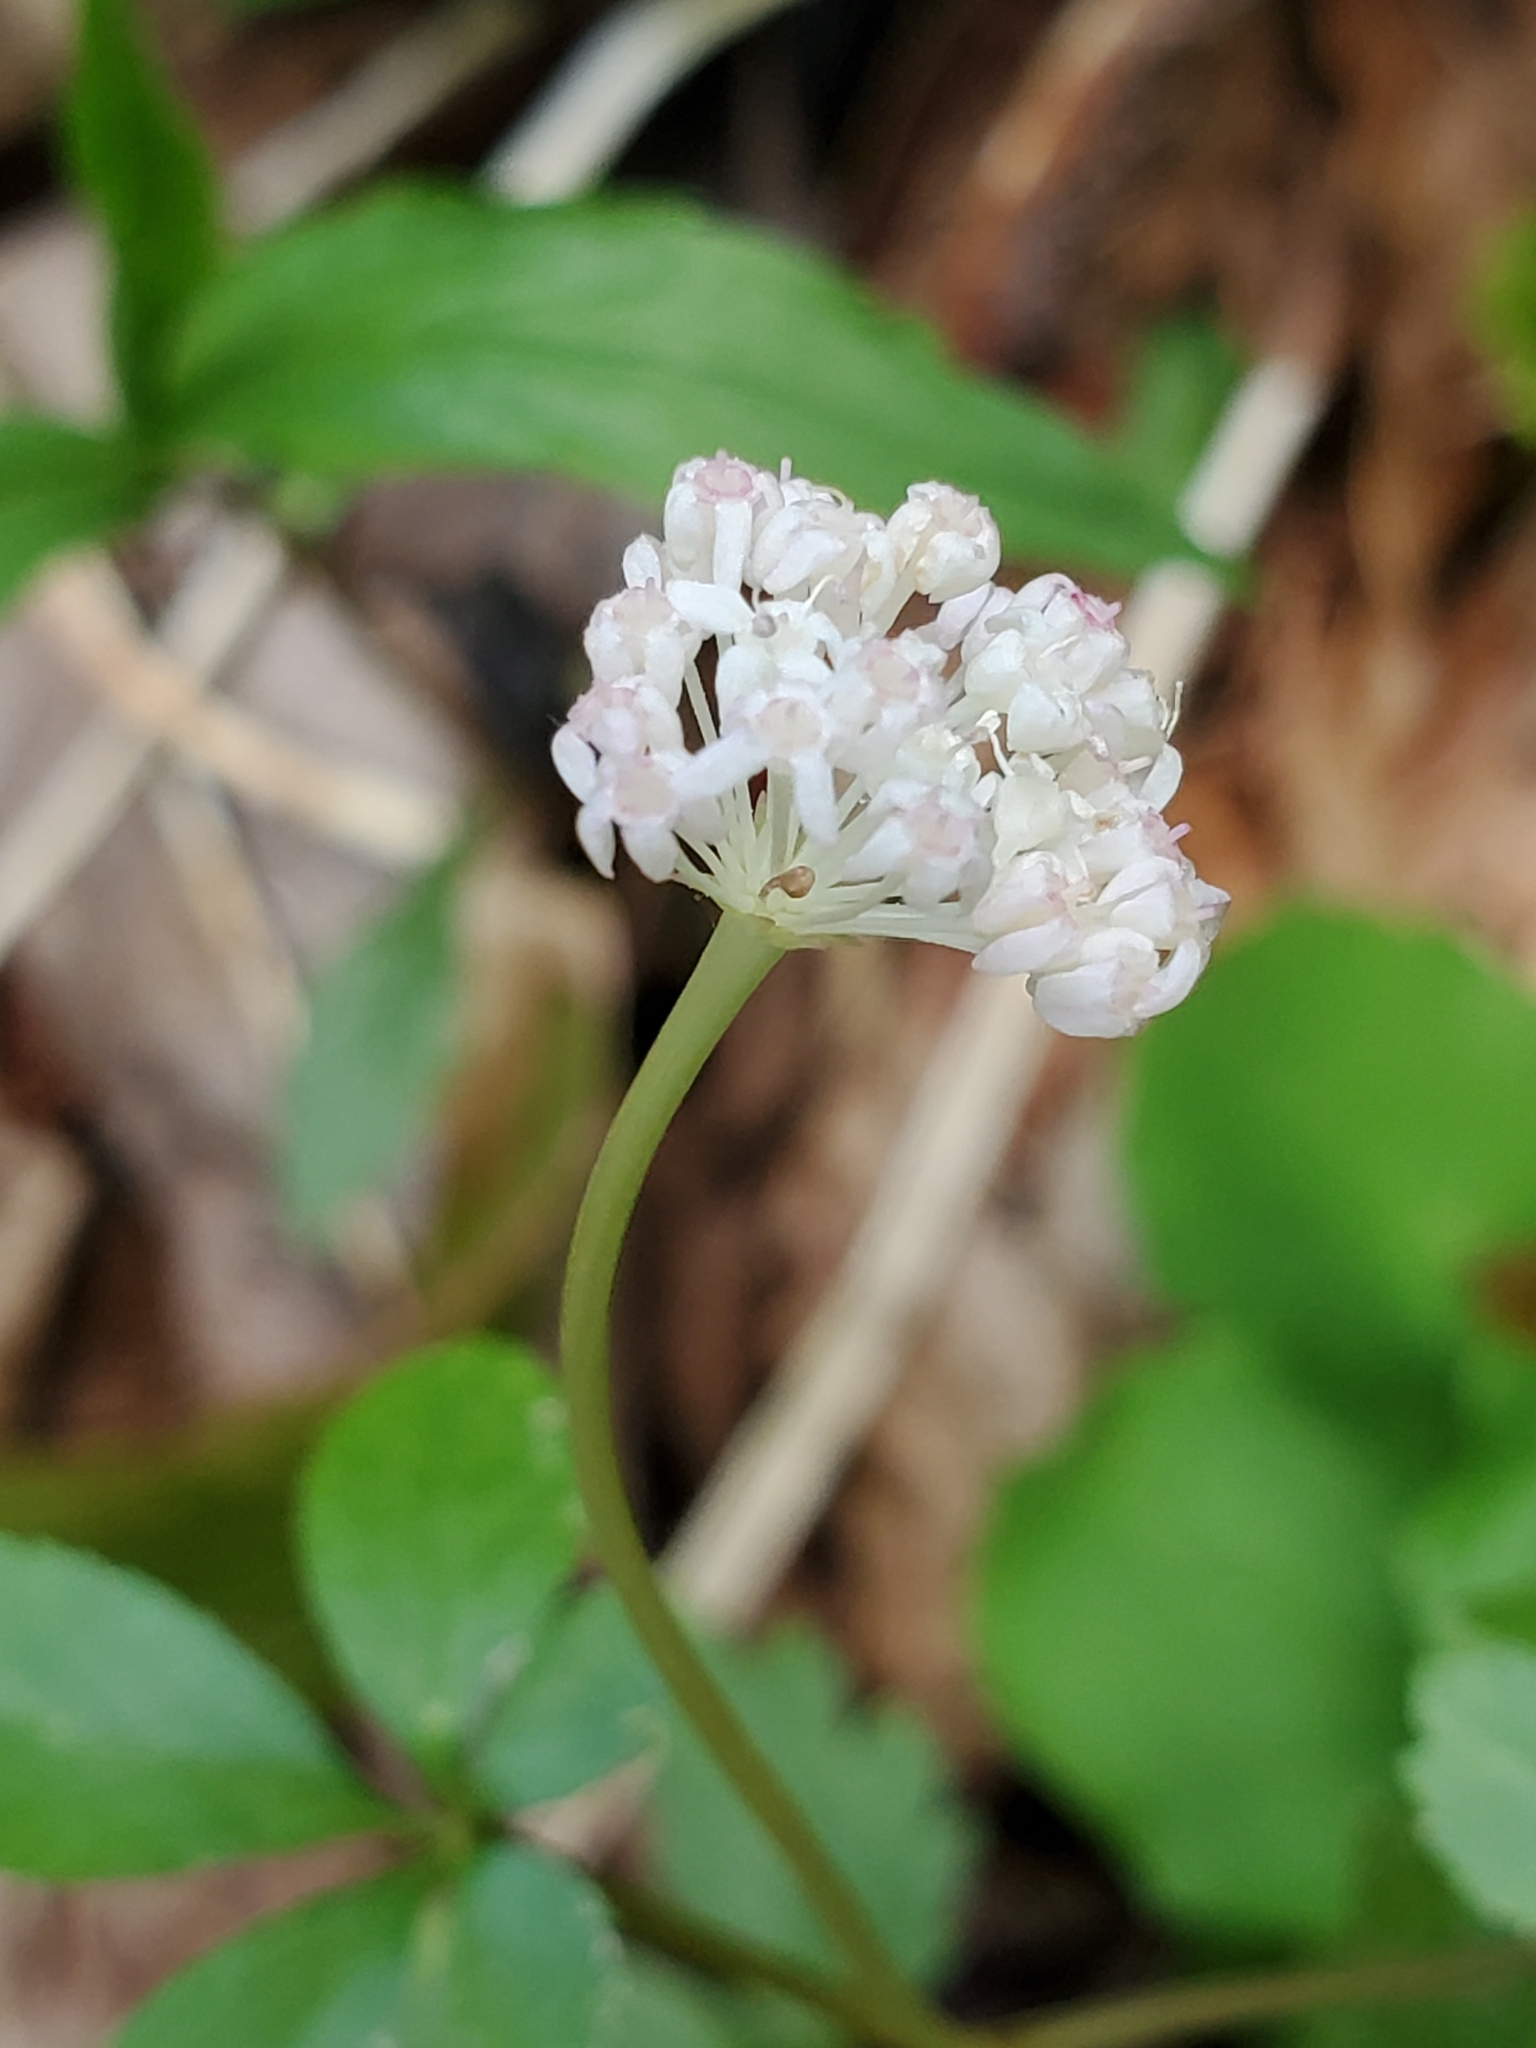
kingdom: Plantae
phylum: Tracheophyta
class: Magnoliopsida
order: Apiales
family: Araliaceae
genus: Panax
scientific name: Panax trifolius
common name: Dwarf ginseng
